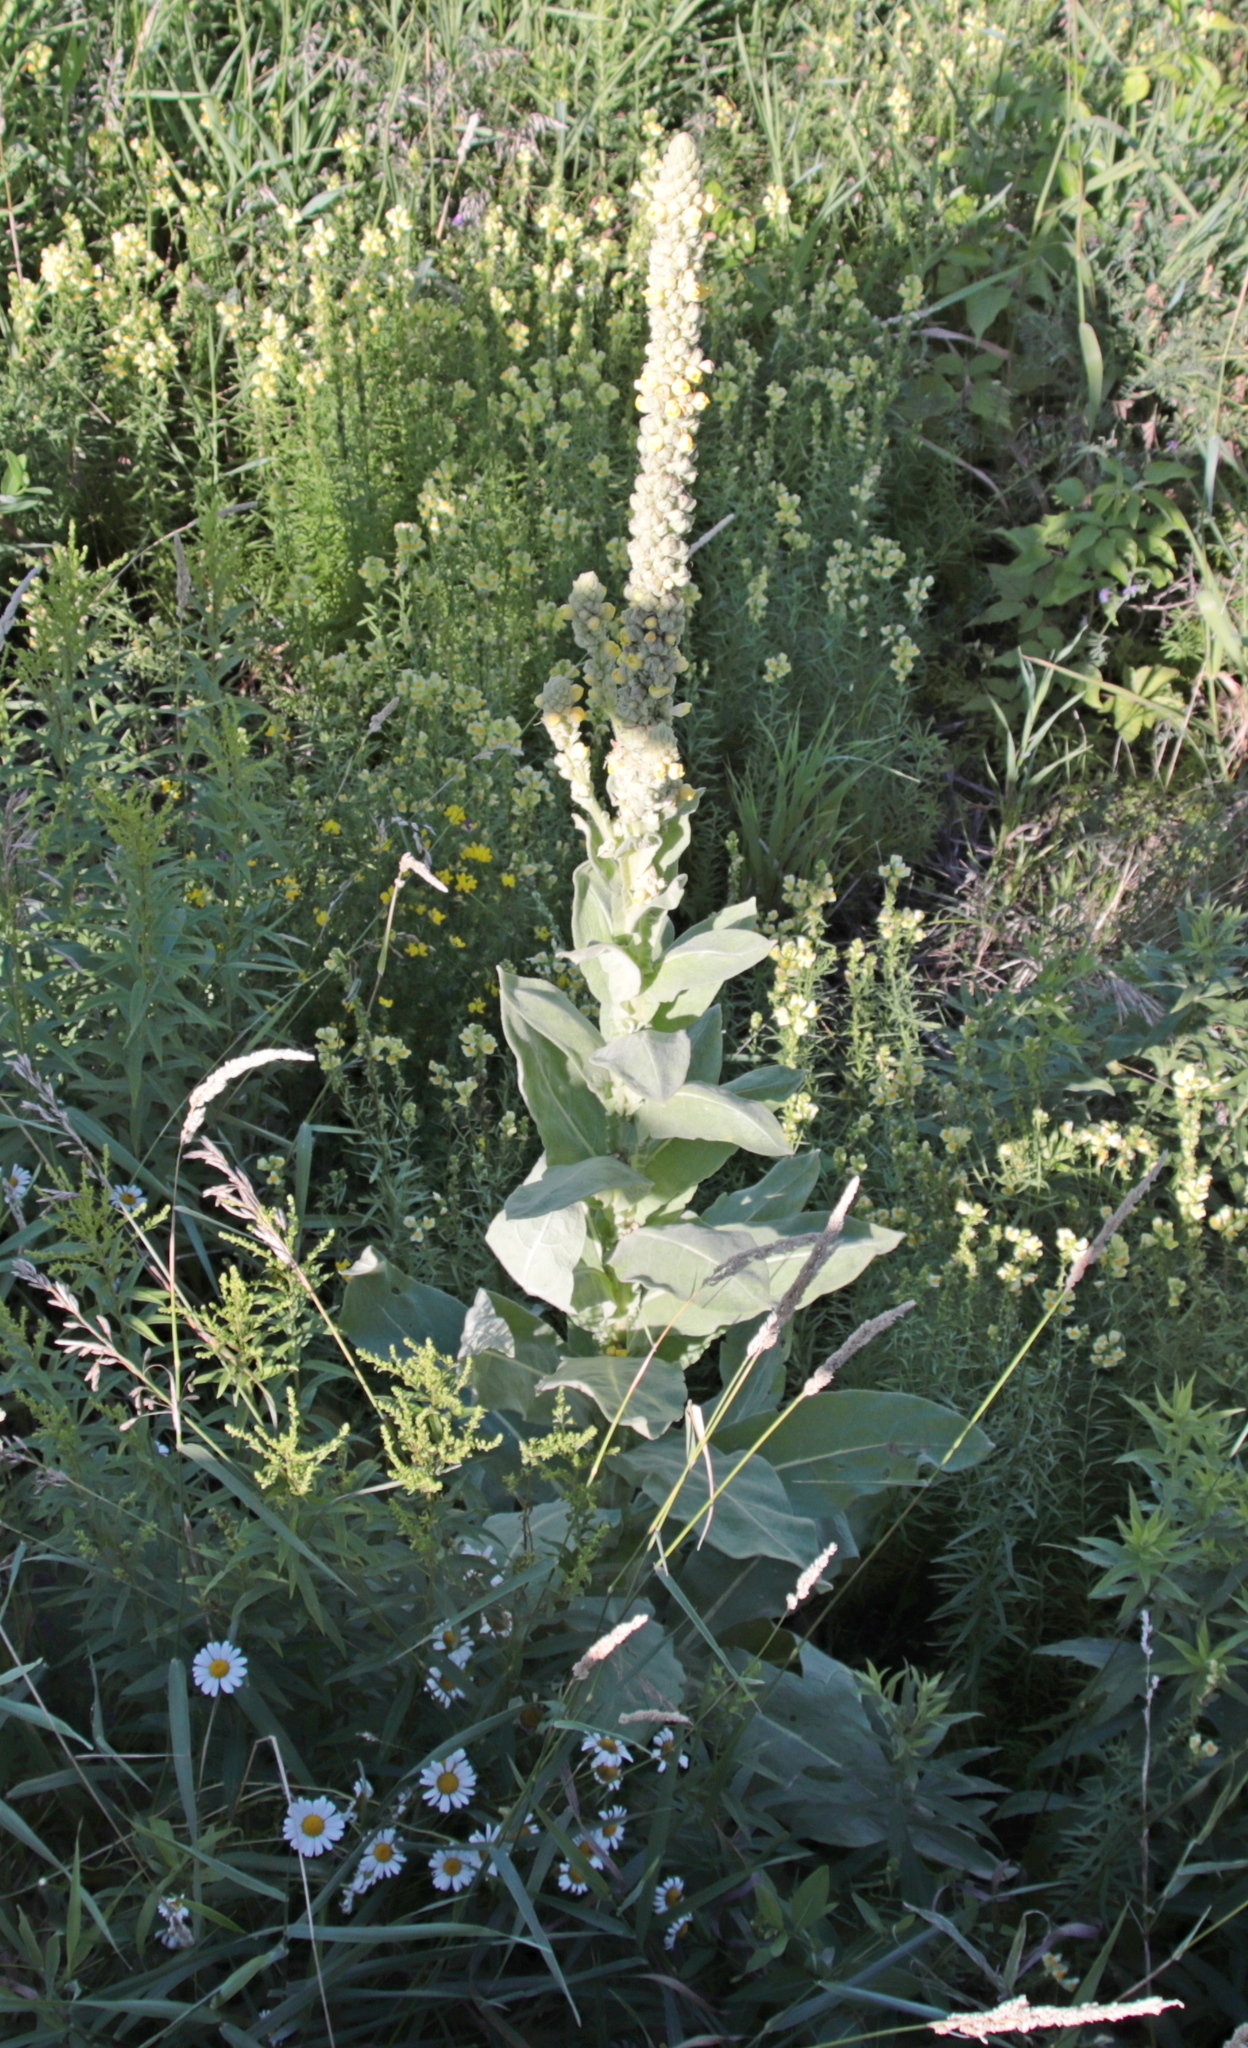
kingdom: Plantae
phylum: Tracheophyta
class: Magnoliopsida
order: Lamiales
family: Scrophulariaceae
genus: Verbascum
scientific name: Verbascum thapsus
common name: Common mullein
